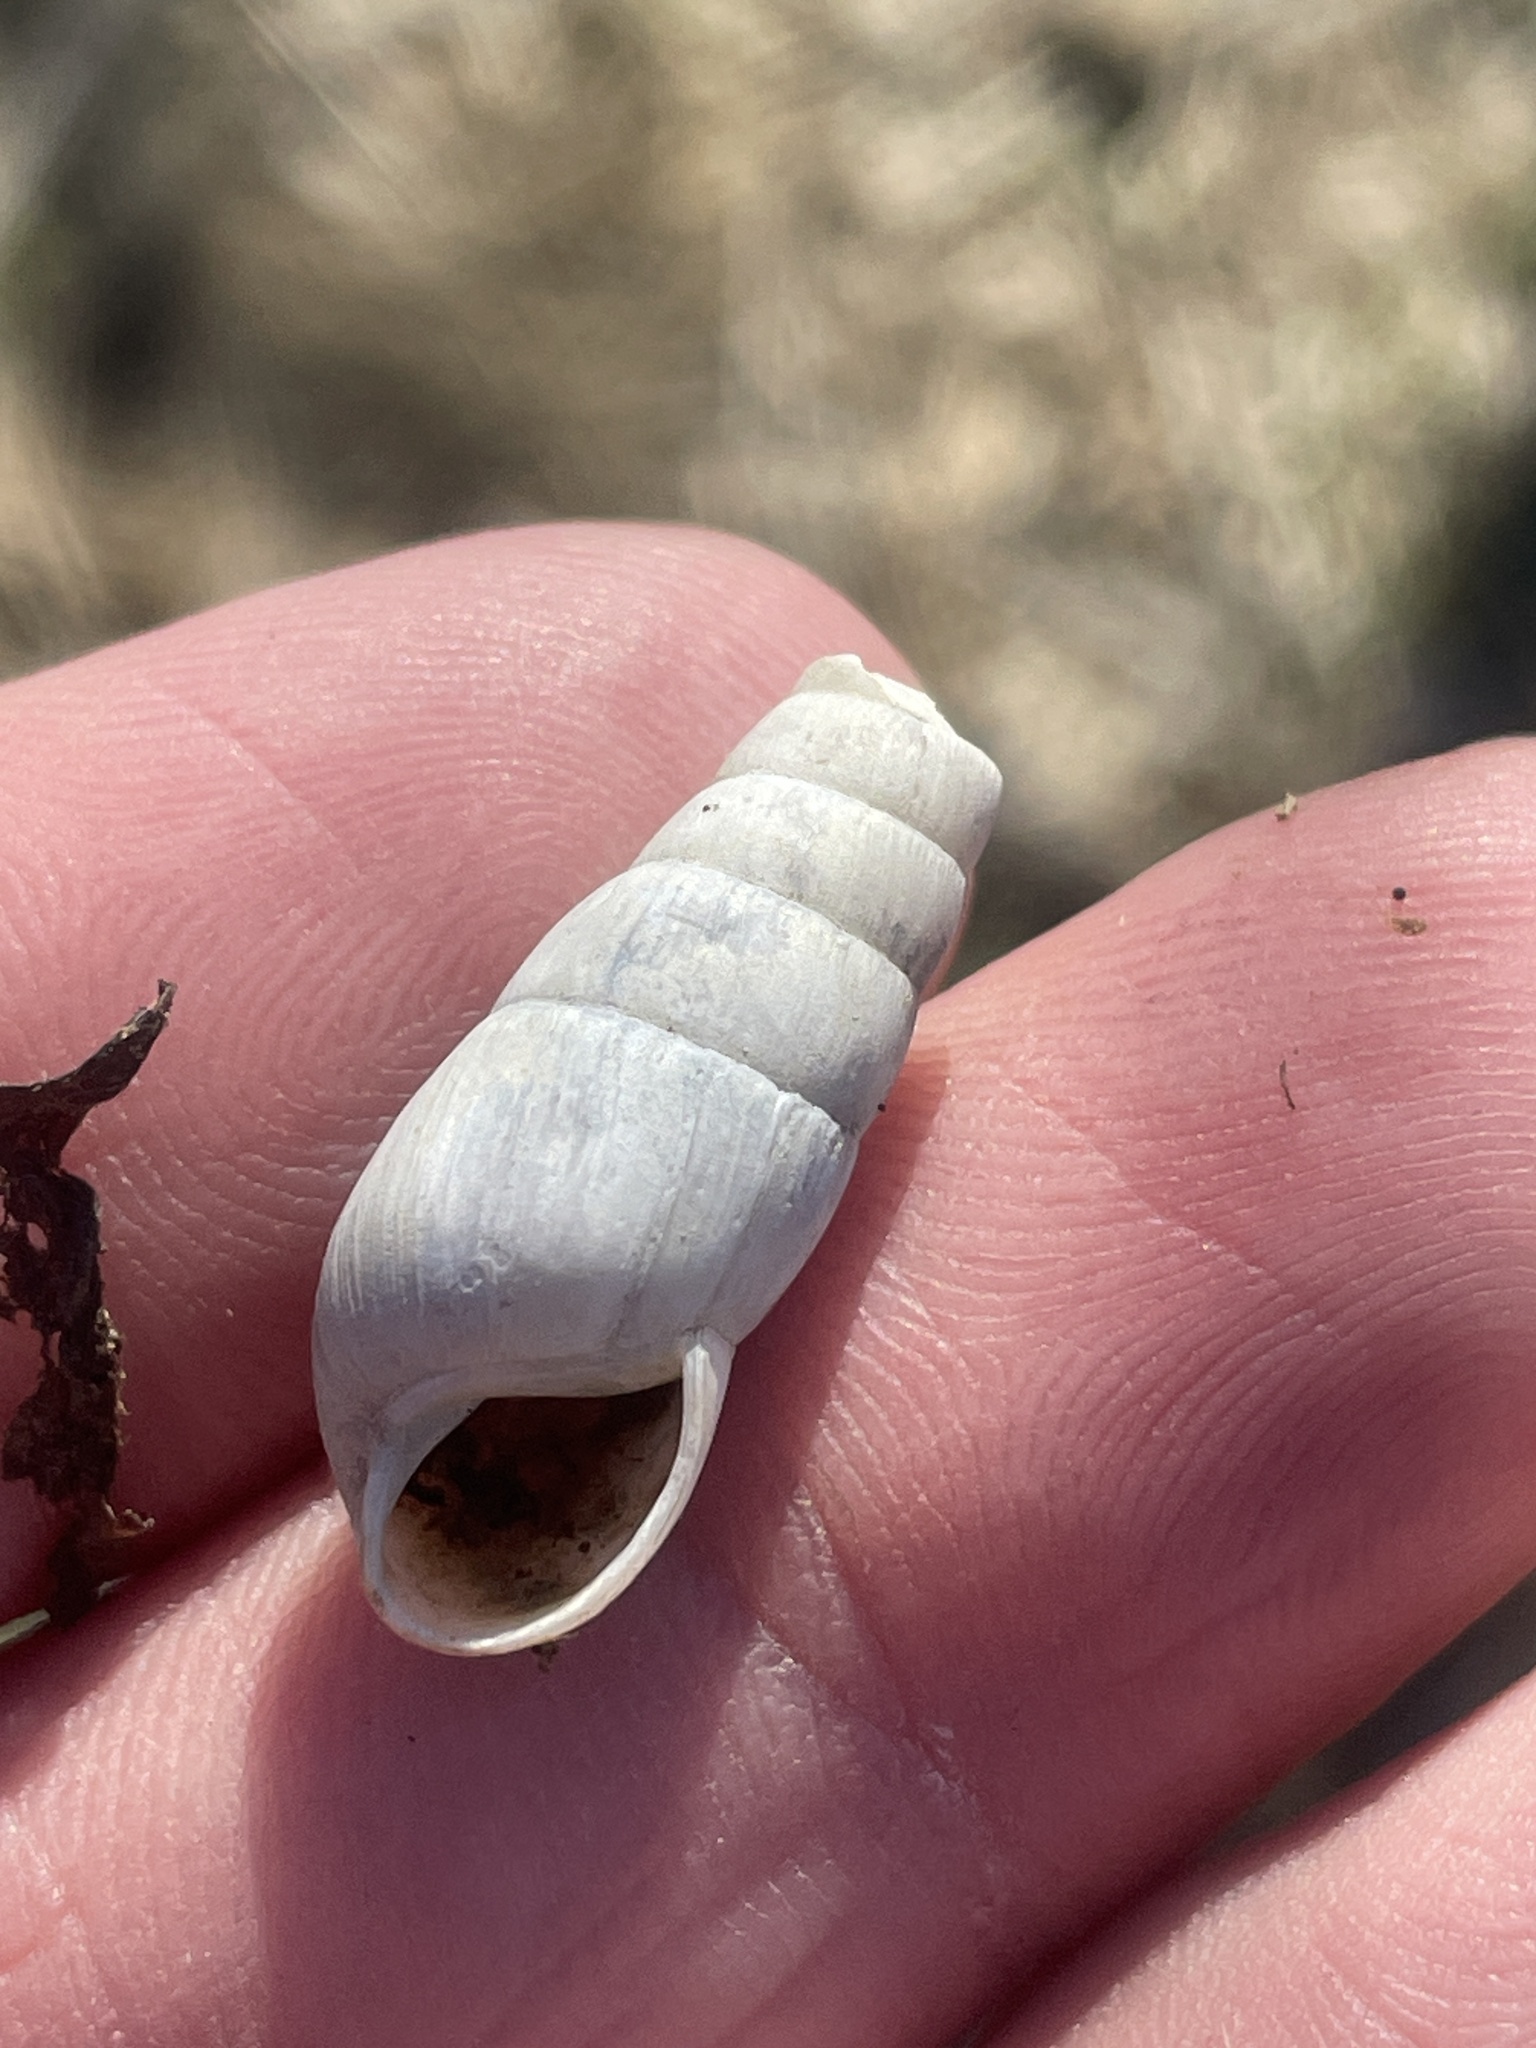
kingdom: Animalia
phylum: Mollusca
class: Gastropoda
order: Stylommatophora
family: Achatinidae
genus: Rumina
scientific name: Rumina decollata
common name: Decollate snail
